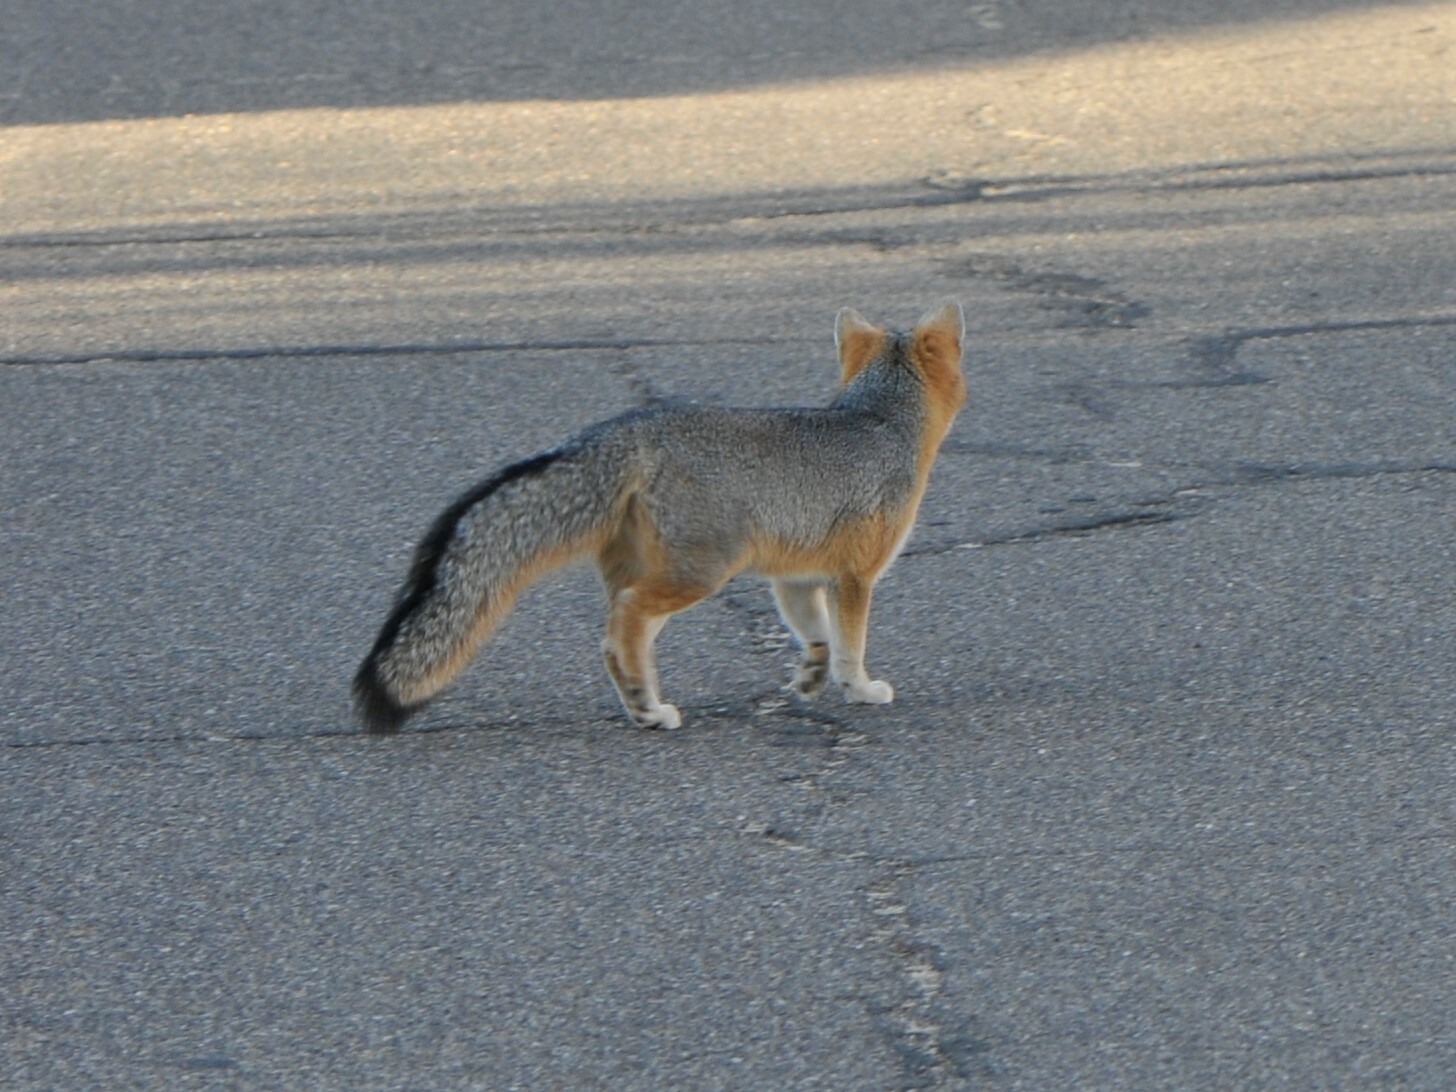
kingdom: Animalia
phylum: Chordata
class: Mammalia
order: Carnivora
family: Canidae
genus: Urocyon
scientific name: Urocyon cinereoargenteus
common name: Gray fox
